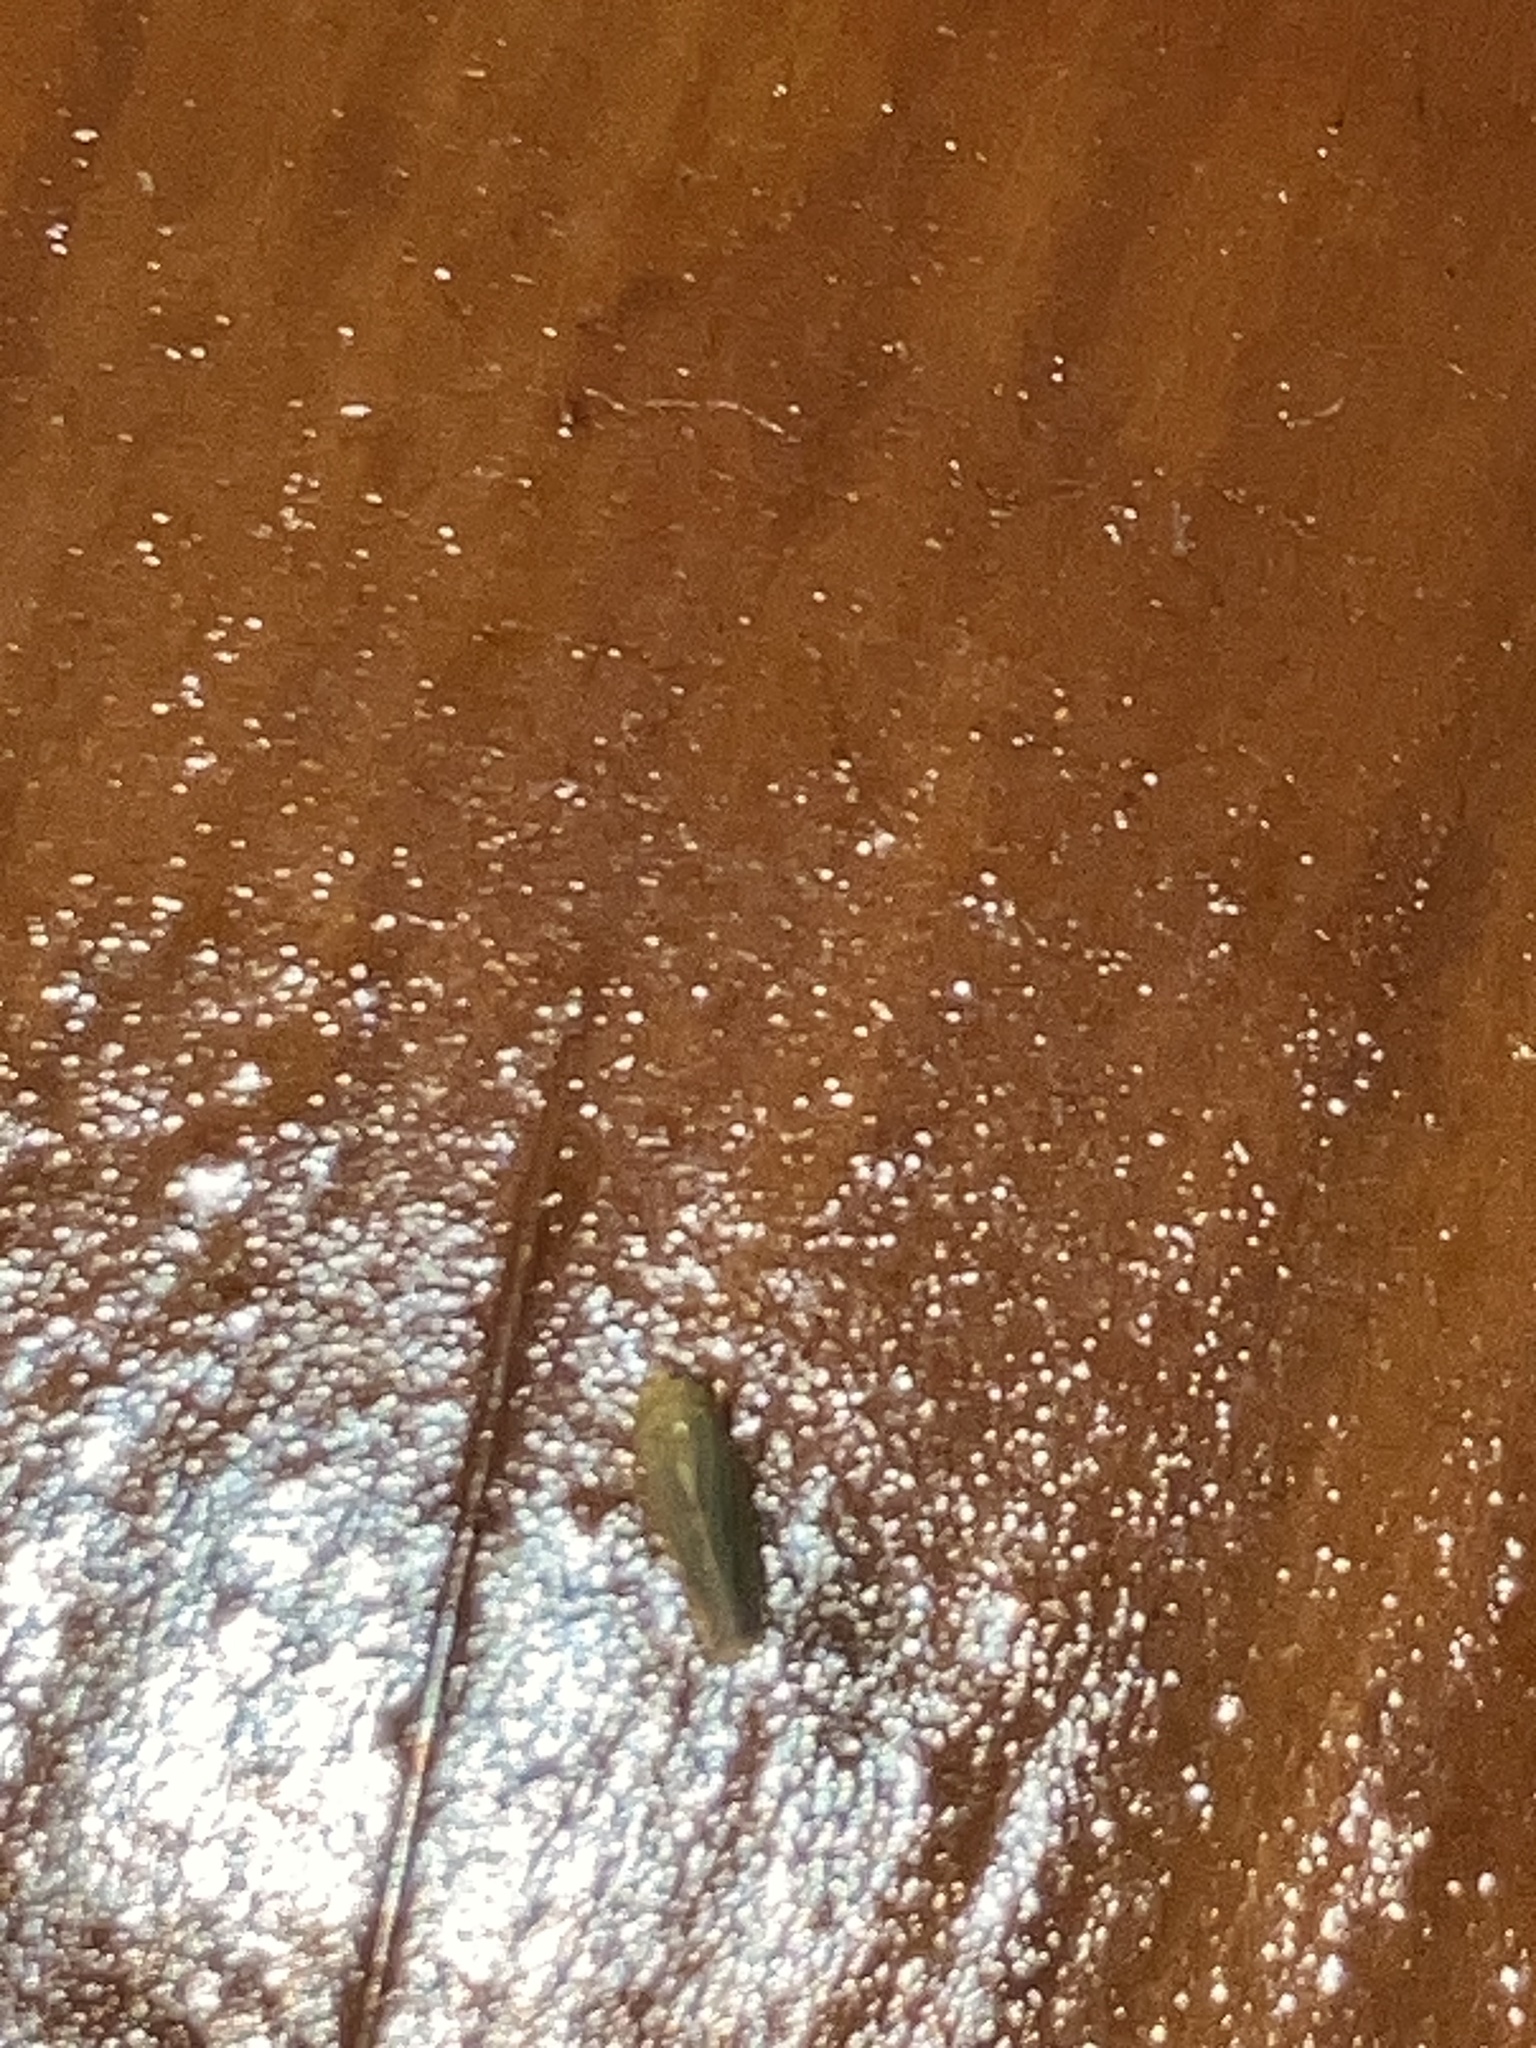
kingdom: Animalia
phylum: Arthropoda
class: Insecta
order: Hemiptera
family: Cicadellidae
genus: Graminella
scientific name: Graminella cognita
